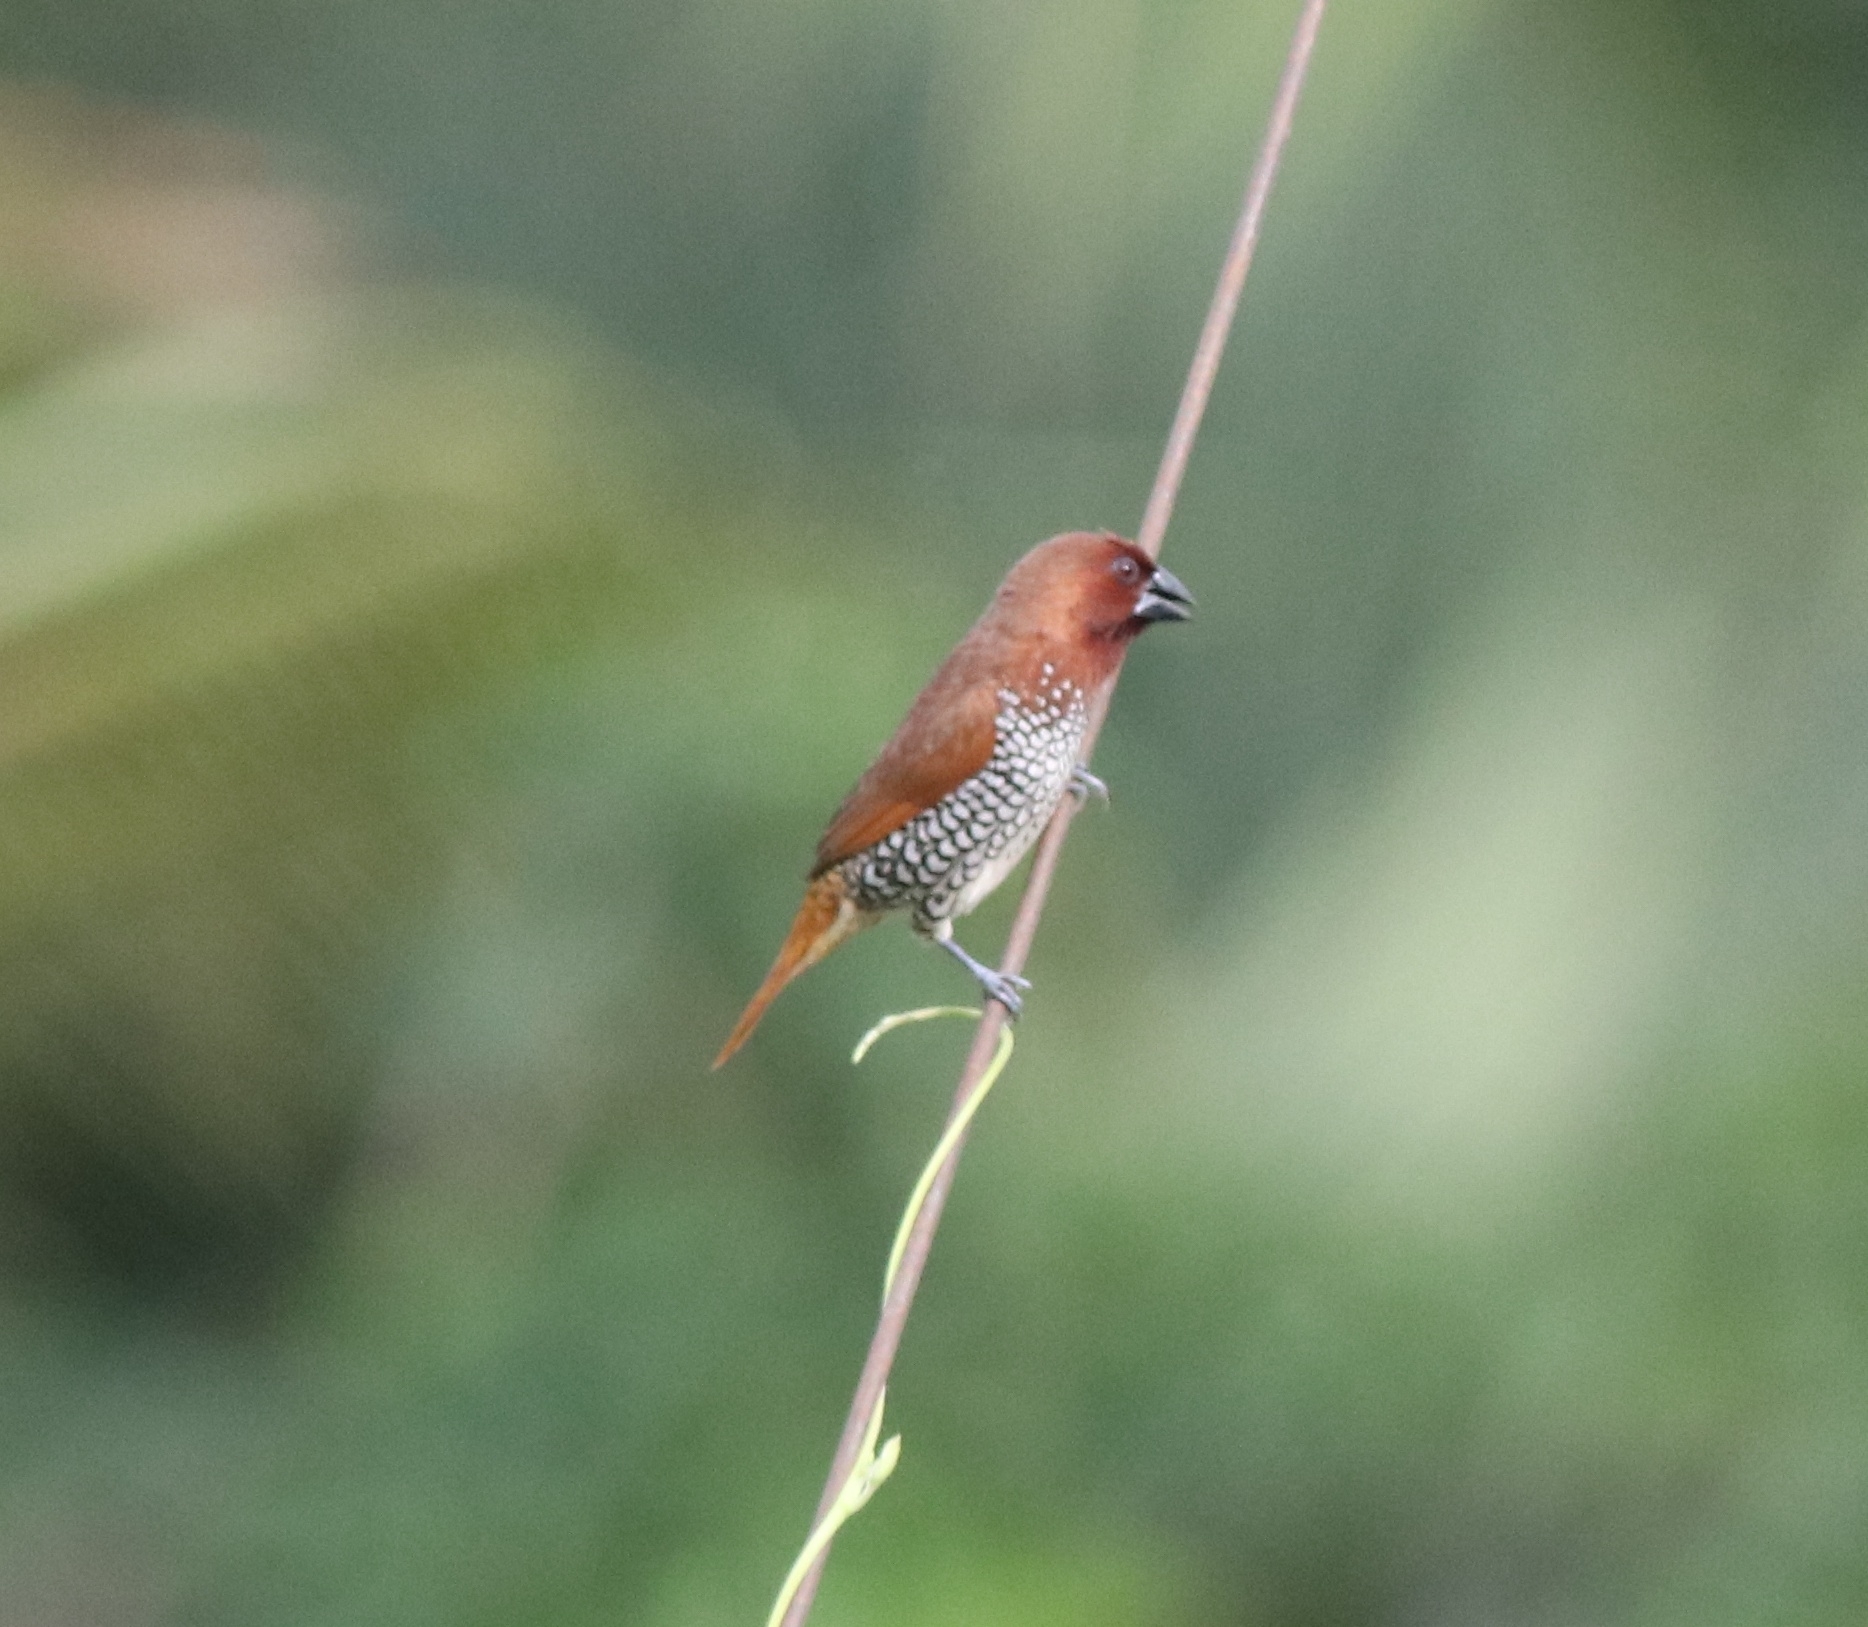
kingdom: Animalia
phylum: Chordata
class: Aves
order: Passeriformes
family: Estrildidae
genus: Lonchura
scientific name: Lonchura punctulata
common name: Scaly-breasted munia
